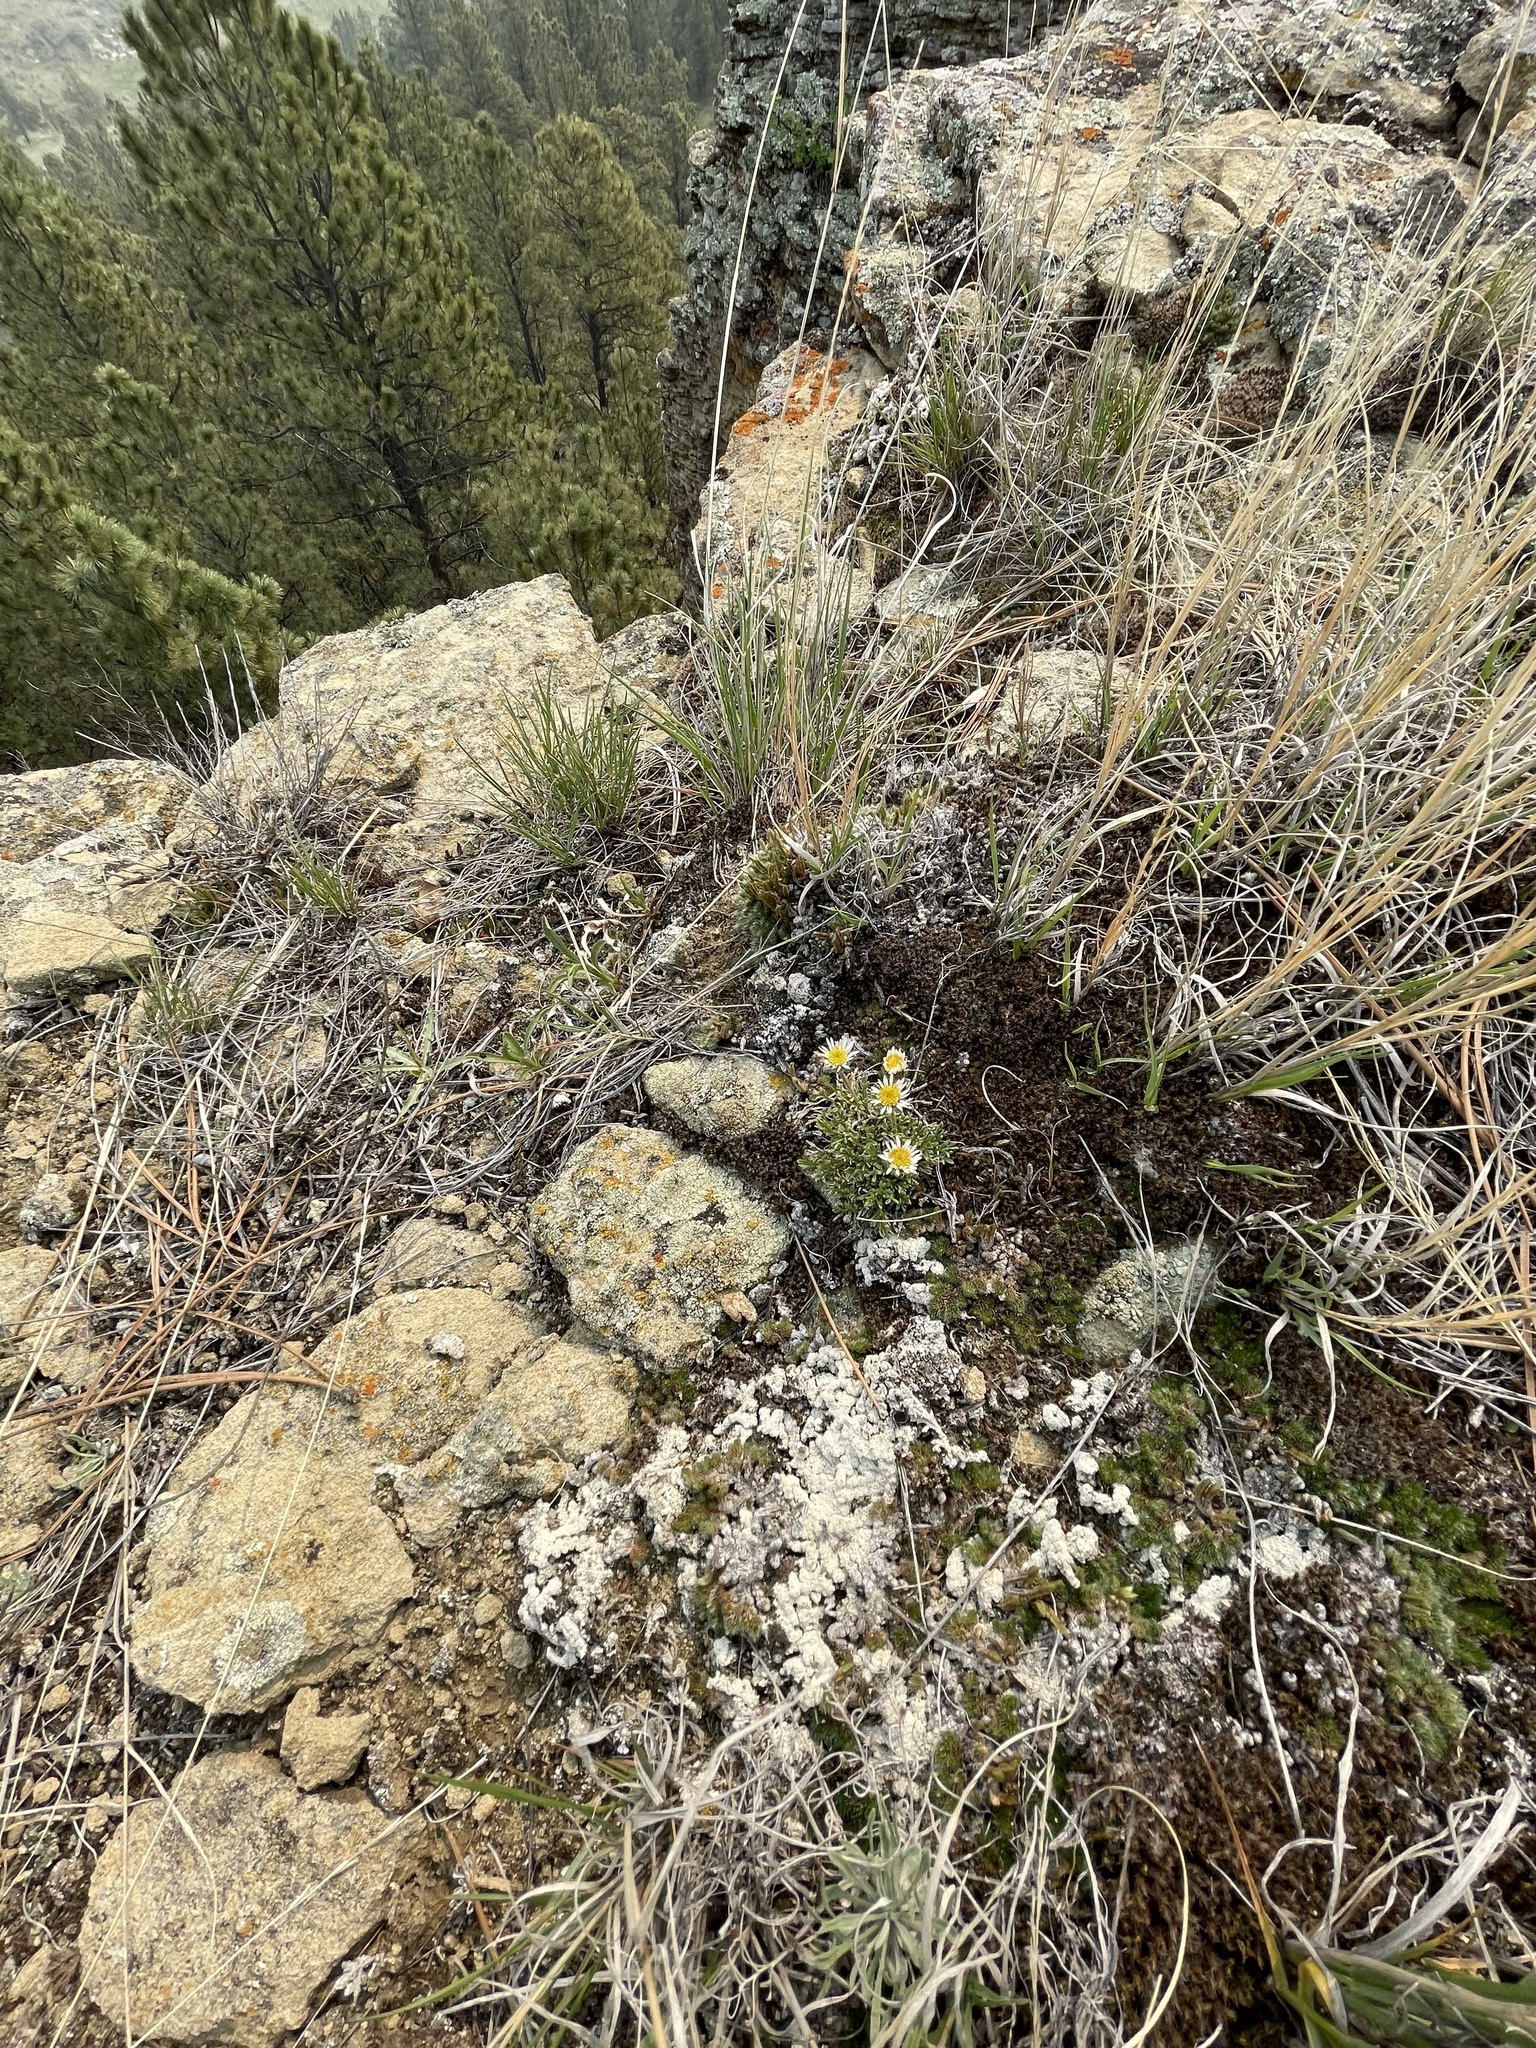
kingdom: Plantae
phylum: Tracheophyta
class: Magnoliopsida
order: Asterales
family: Asteraceae
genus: Erigeron
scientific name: Erigeron compositus
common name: Dwarf mountain fleabane
